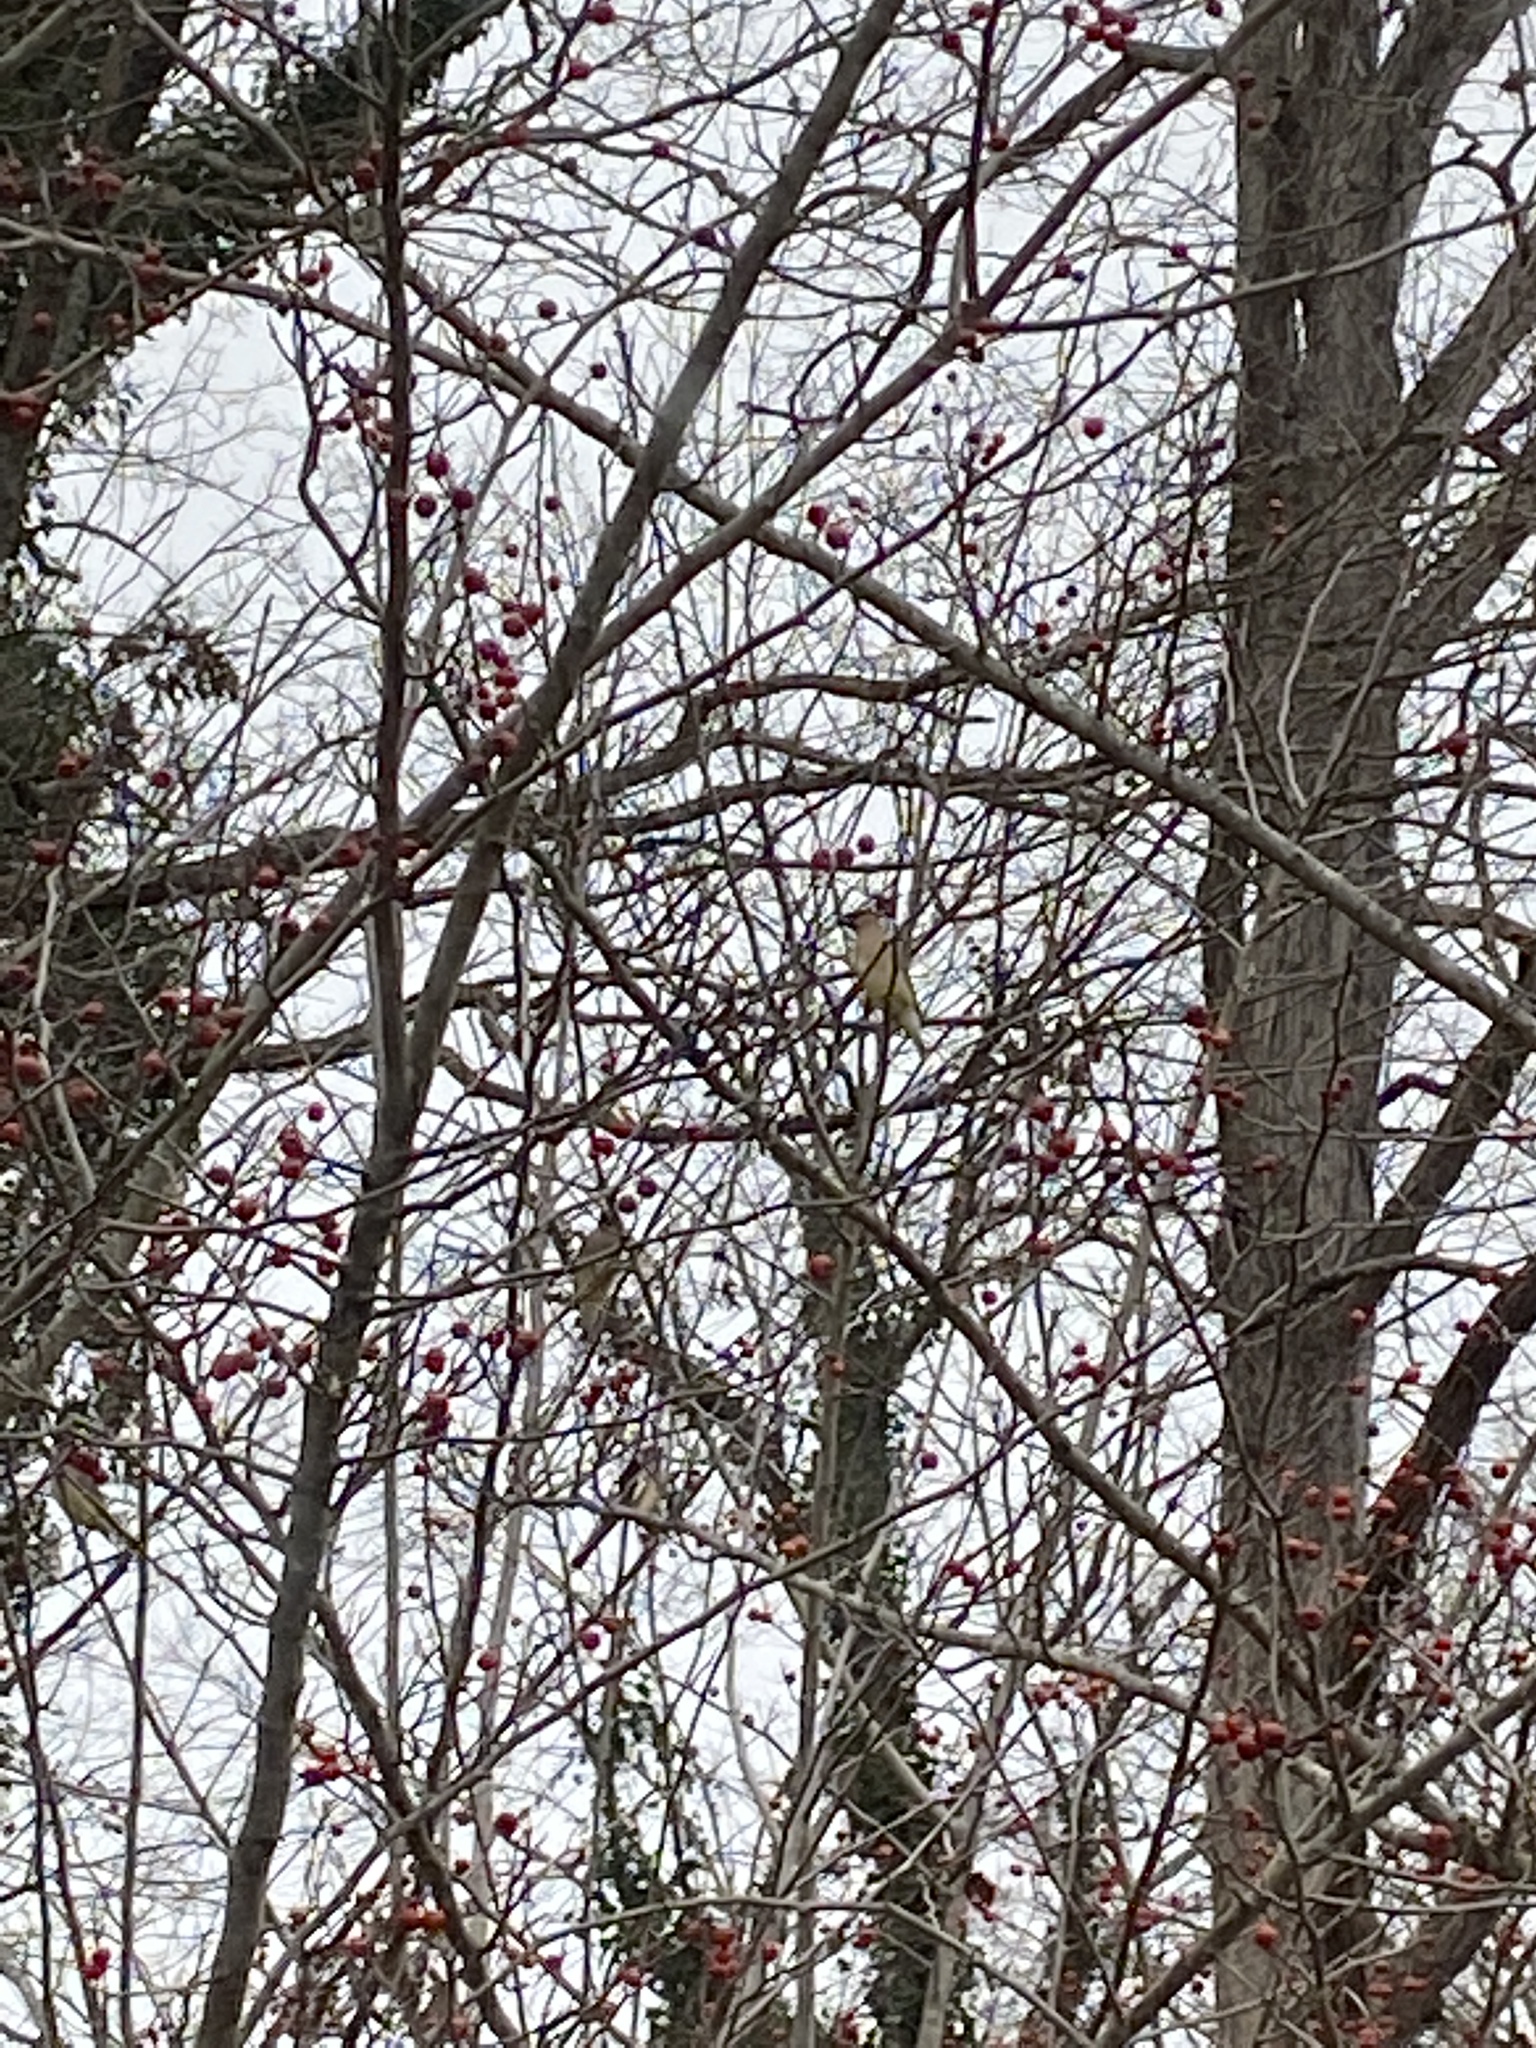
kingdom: Animalia
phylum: Chordata
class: Aves
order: Passeriformes
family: Bombycillidae
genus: Bombycilla
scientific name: Bombycilla cedrorum
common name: Cedar waxwing
